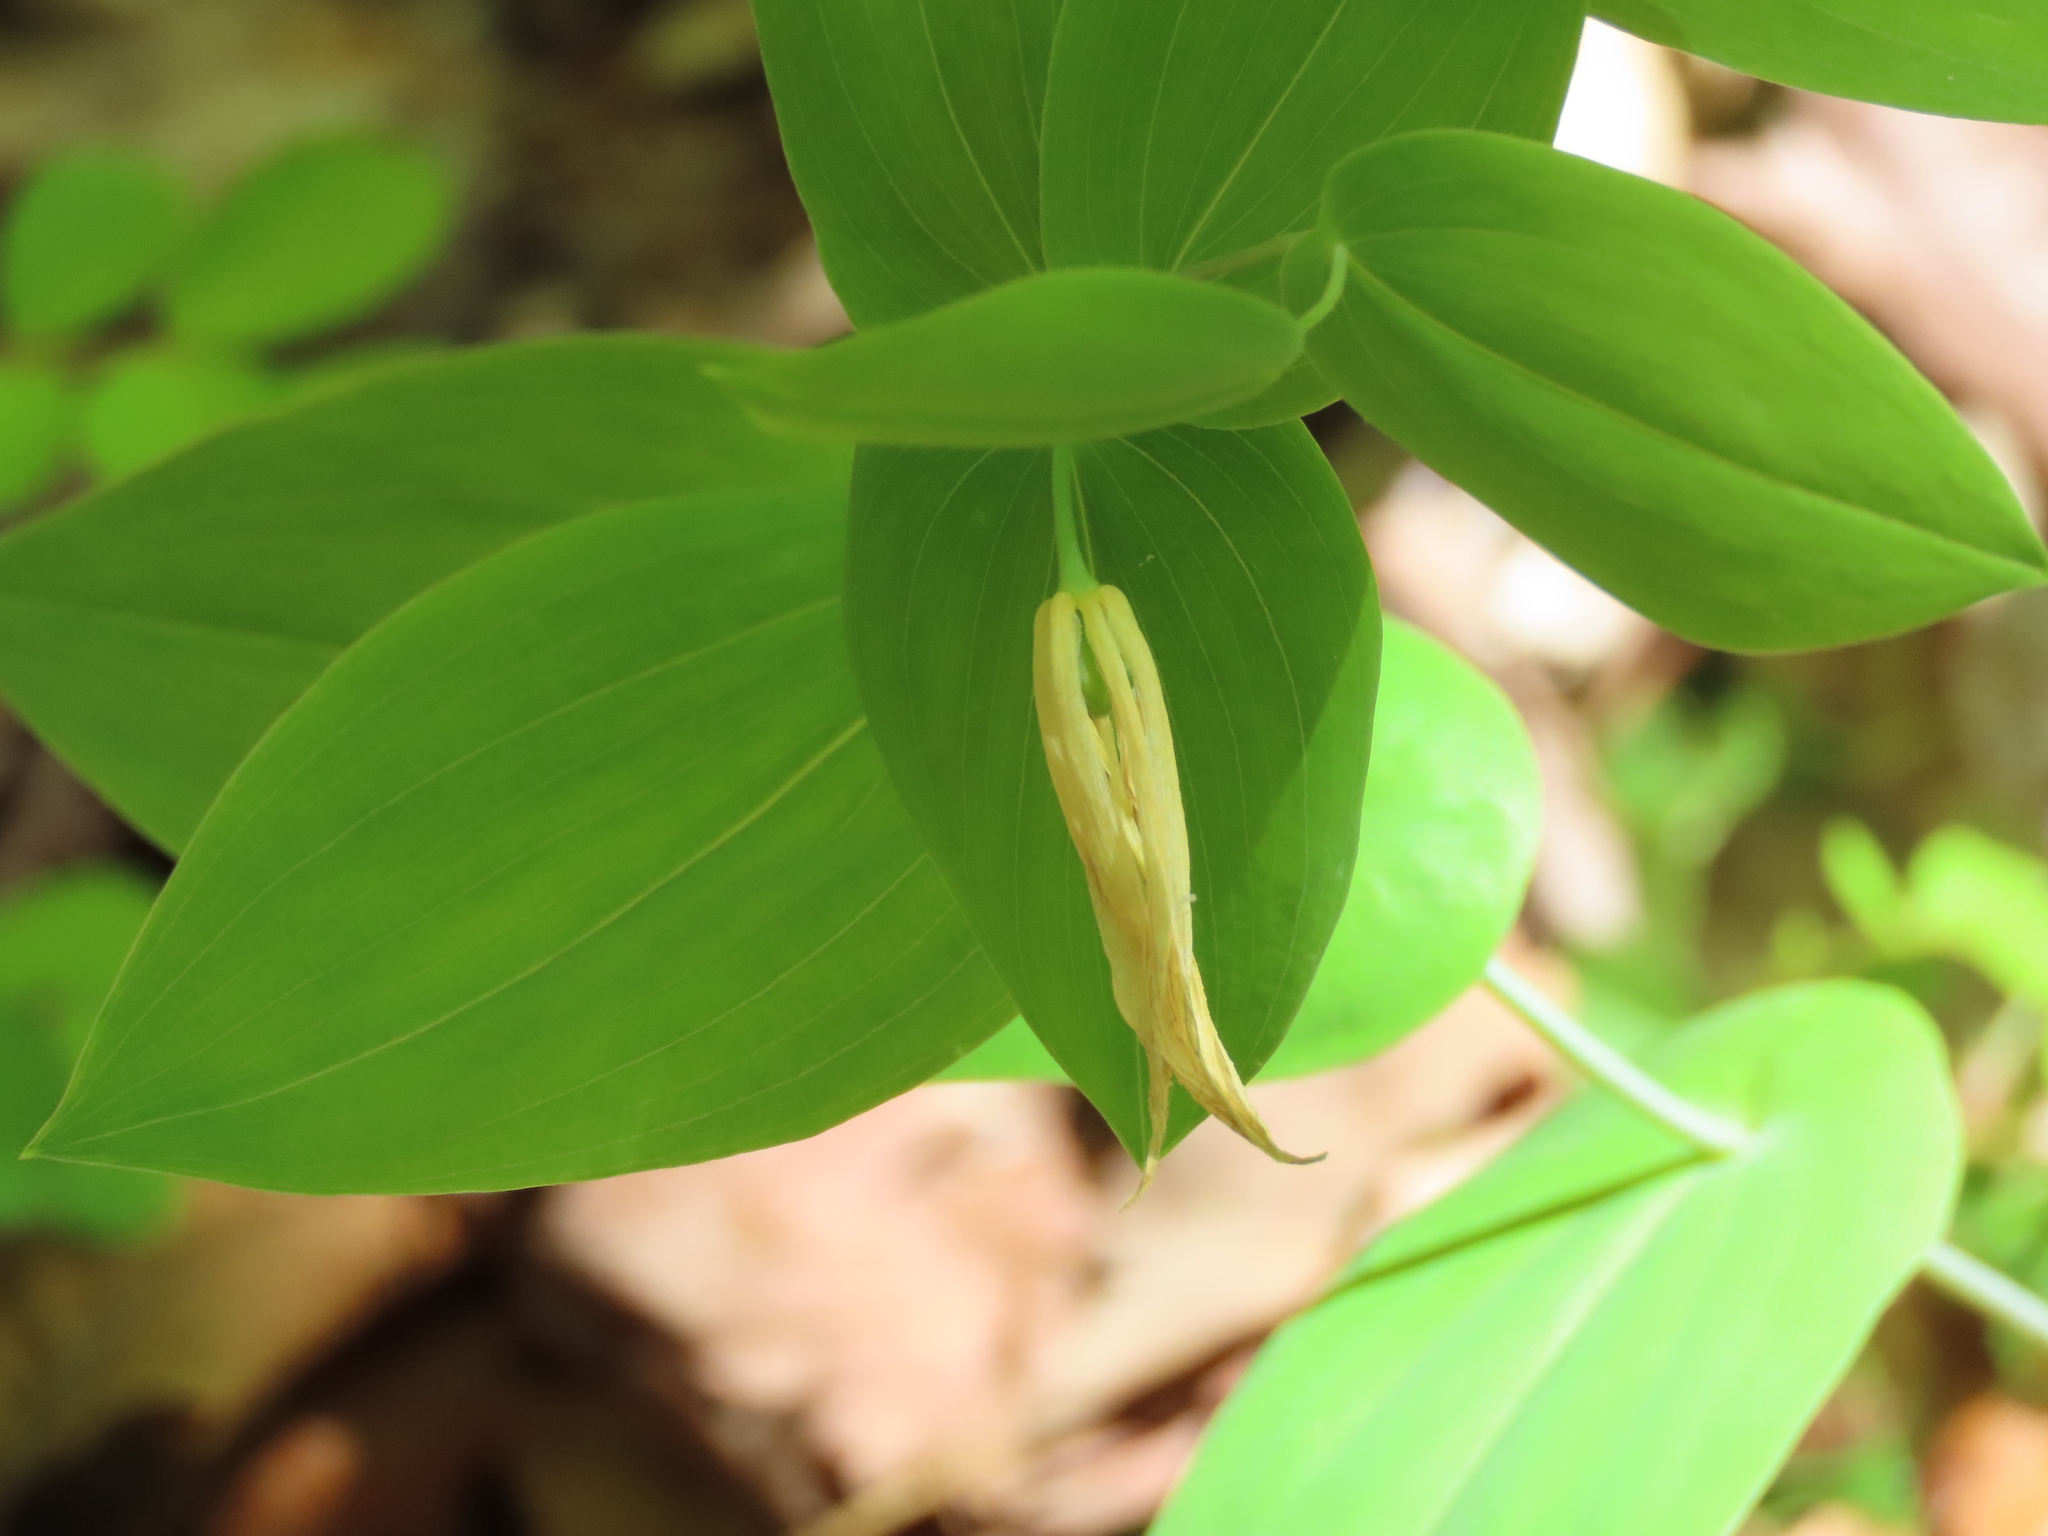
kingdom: Plantae
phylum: Tracheophyta
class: Liliopsida
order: Liliales
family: Colchicaceae
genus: Uvularia
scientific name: Uvularia perfoliata
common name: Perfoliate bellwort
